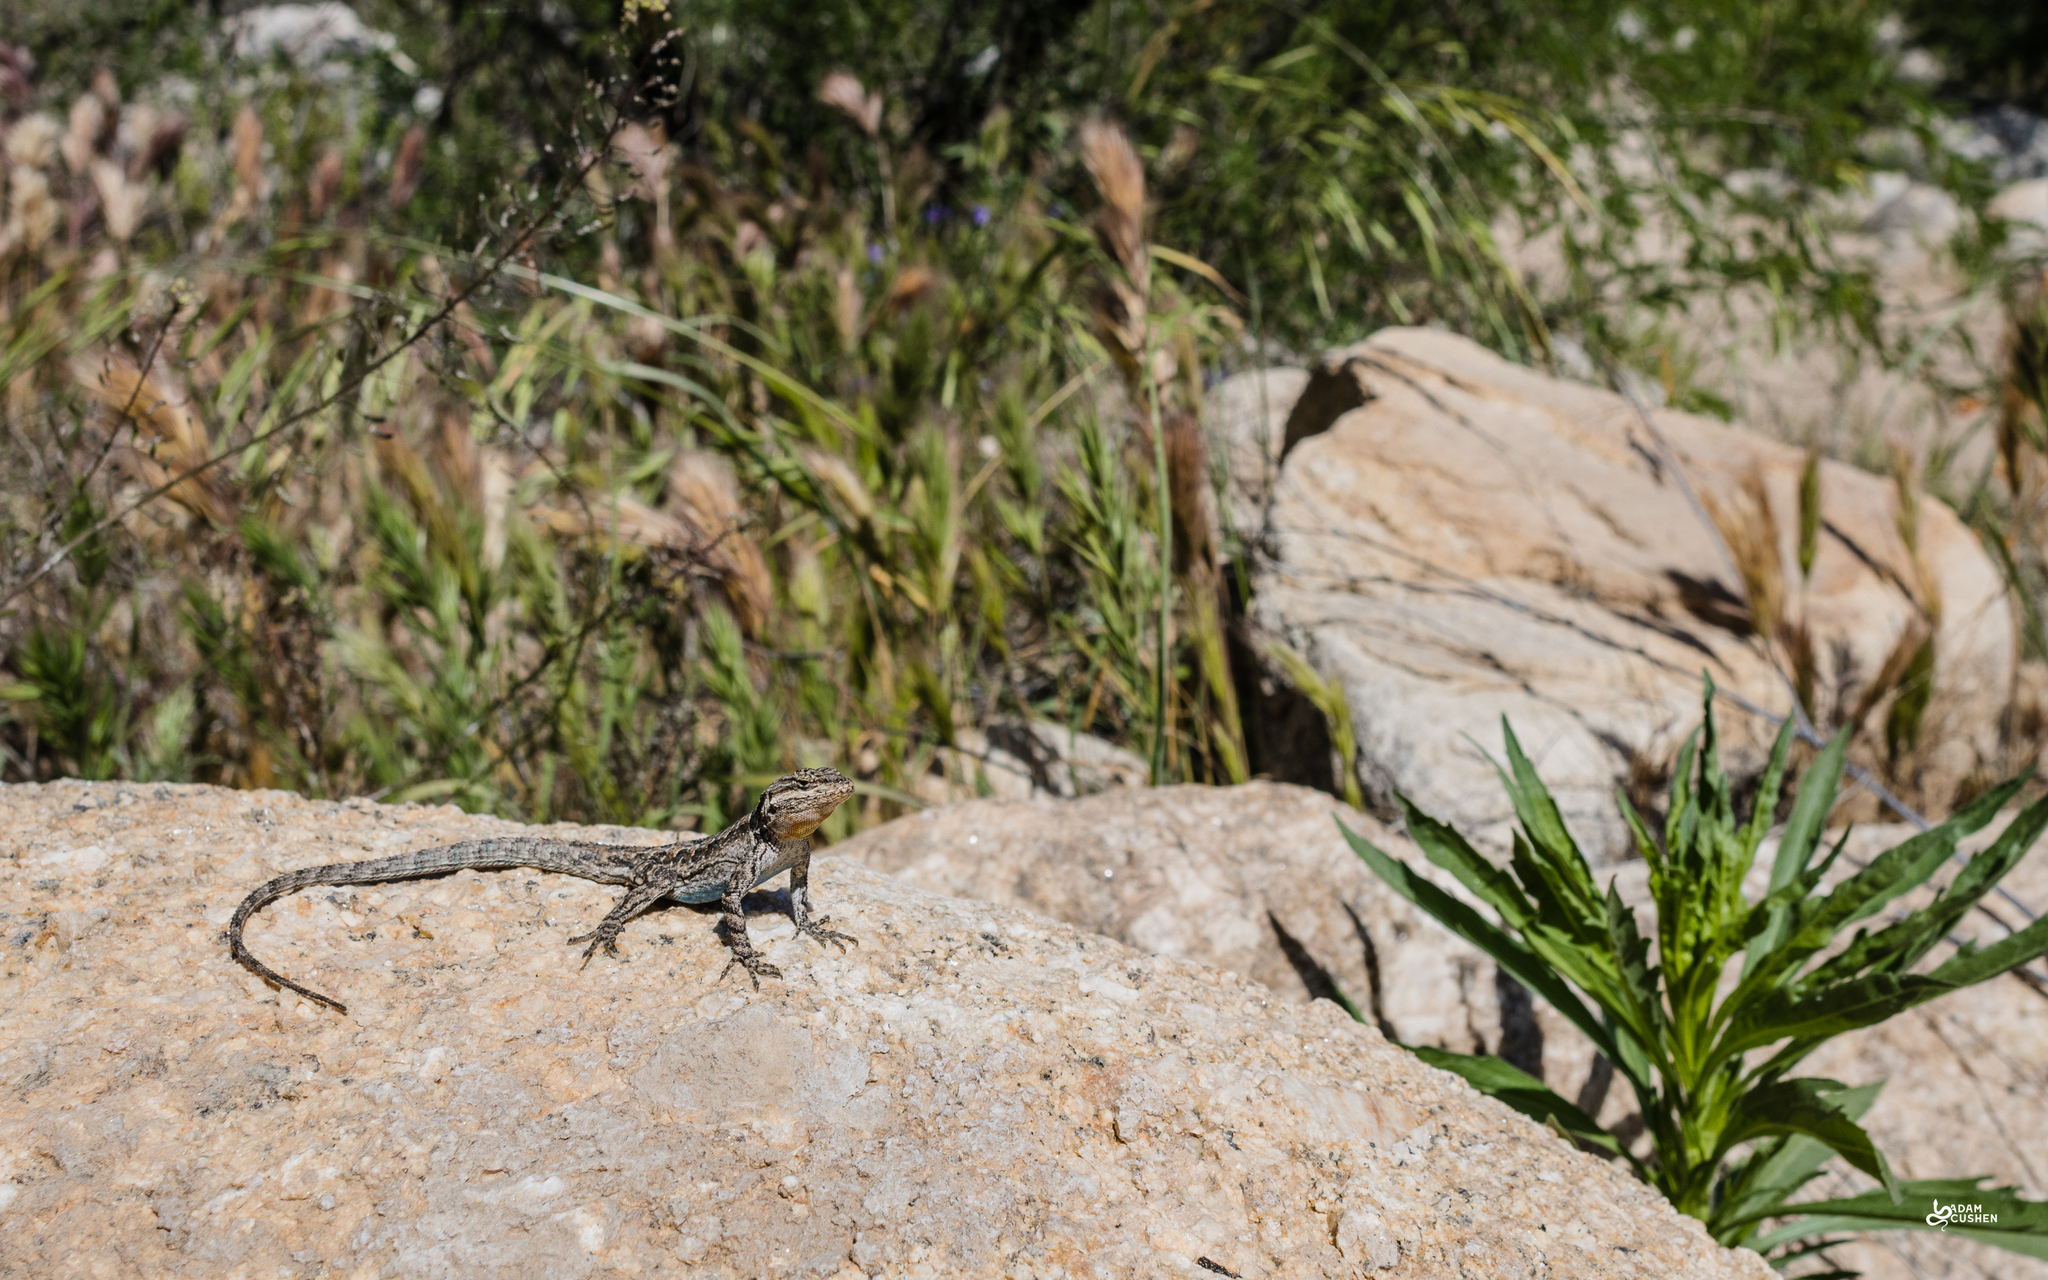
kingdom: Animalia
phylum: Chordata
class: Squamata
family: Phrynosomatidae
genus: Urosaurus
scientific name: Urosaurus ornatus
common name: Ornate tree lizard
